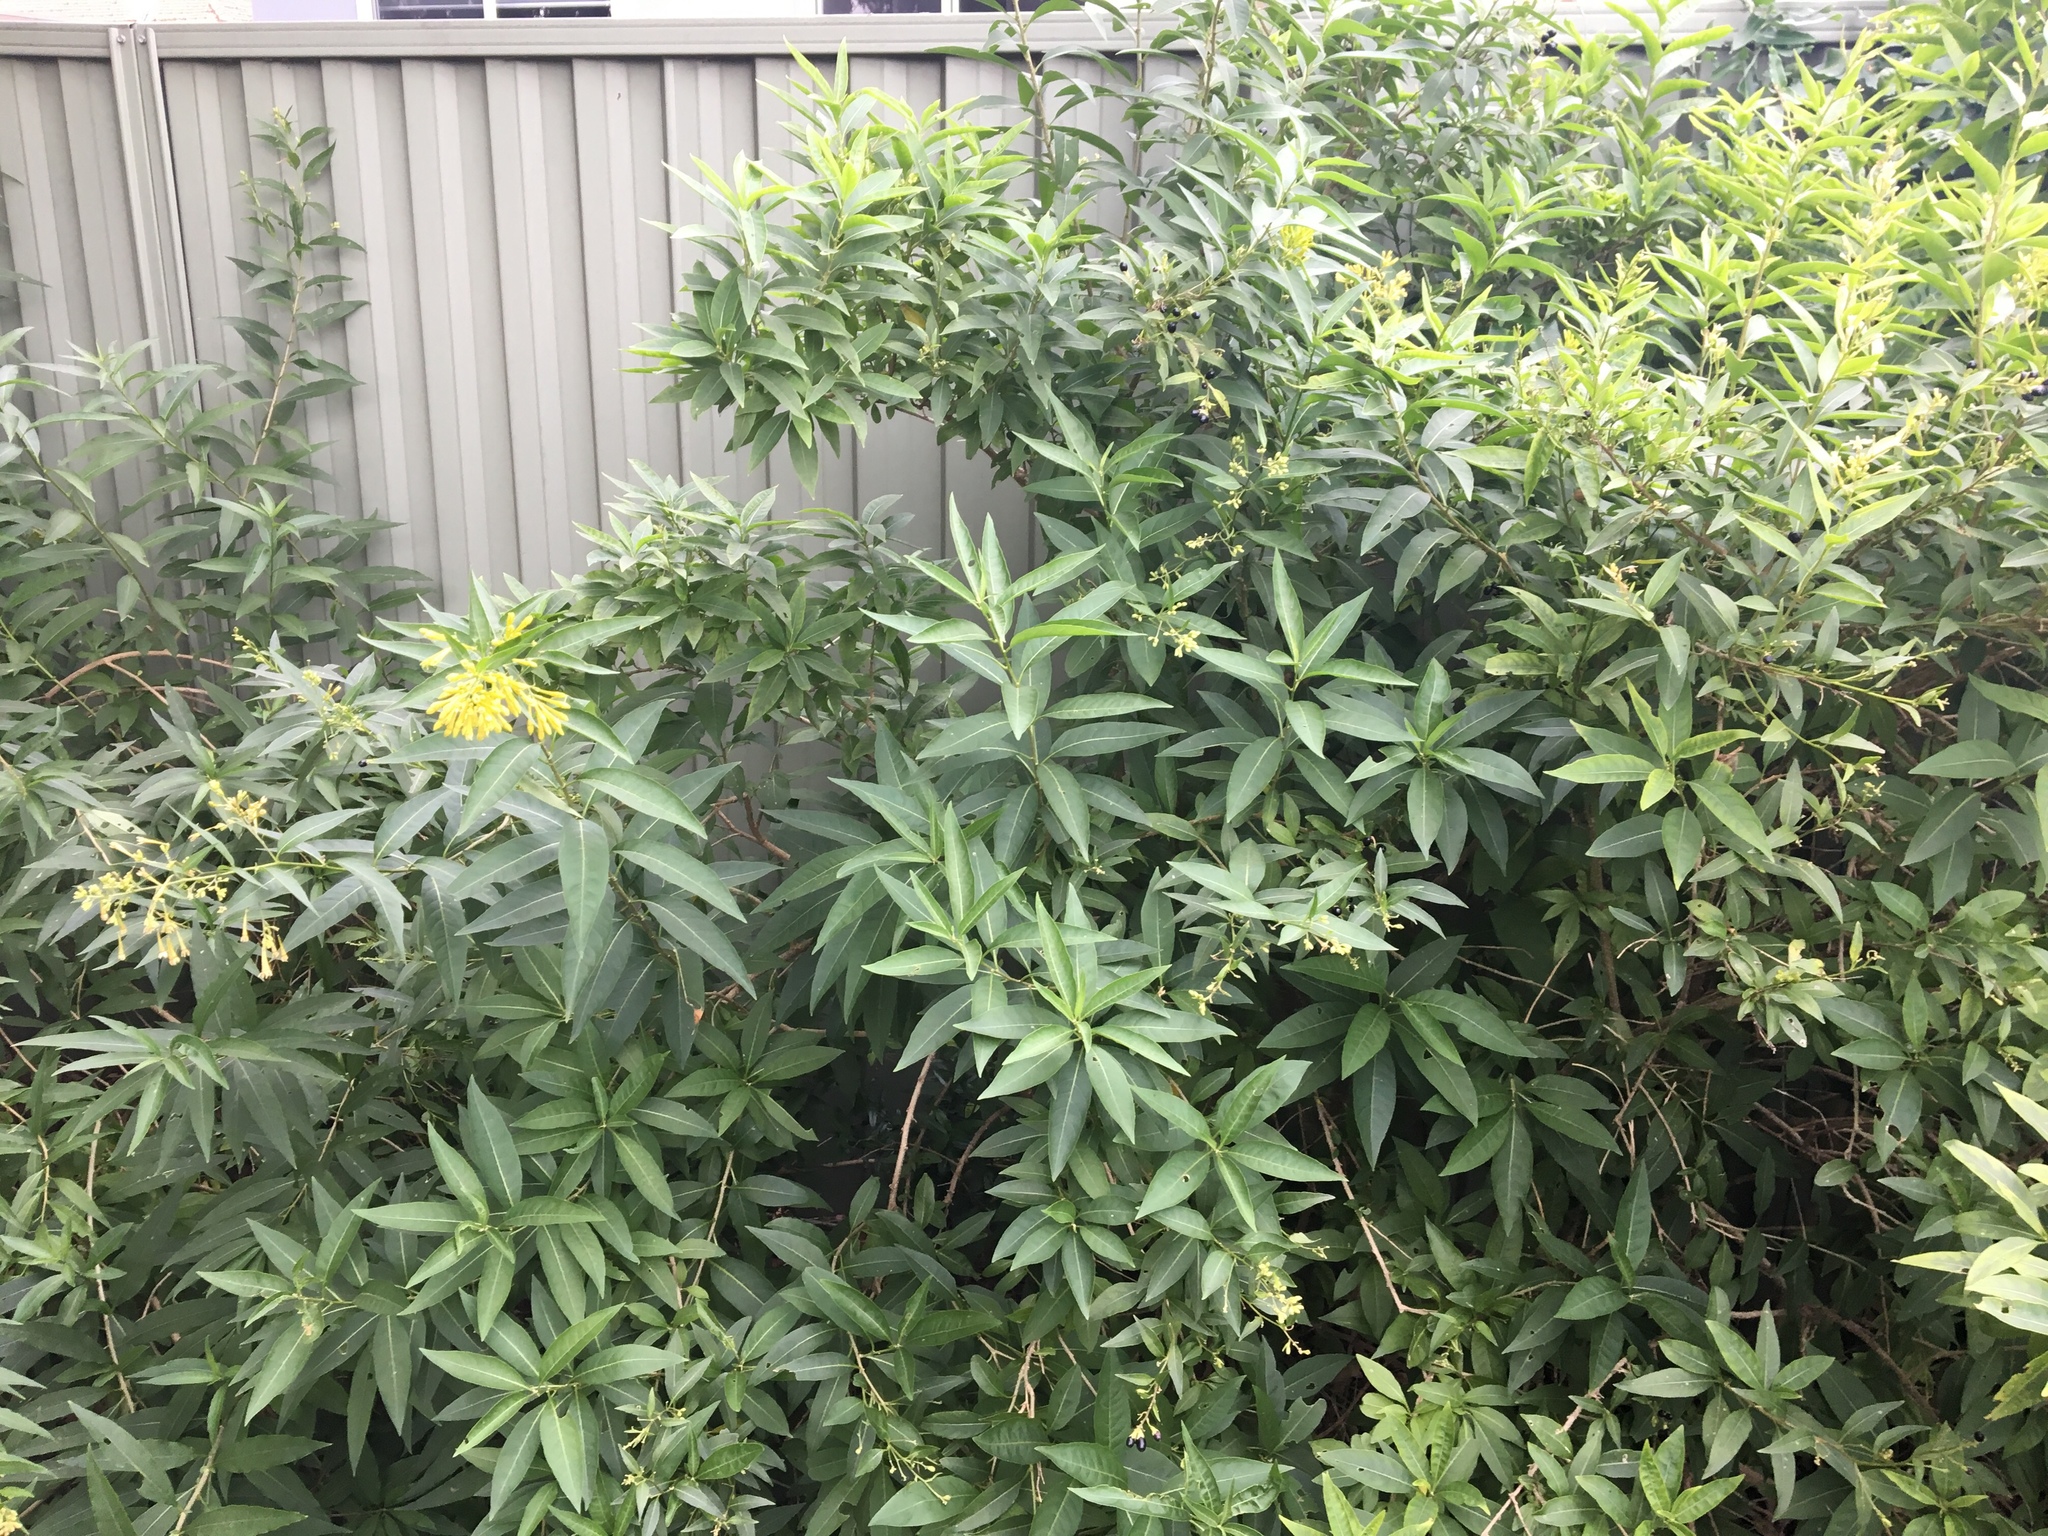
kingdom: Plantae
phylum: Tracheophyta
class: Magnoliopsida
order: Solanales
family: Solanaceae
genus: Cestrum
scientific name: Cestrum parqui
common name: Chilean cestrum
